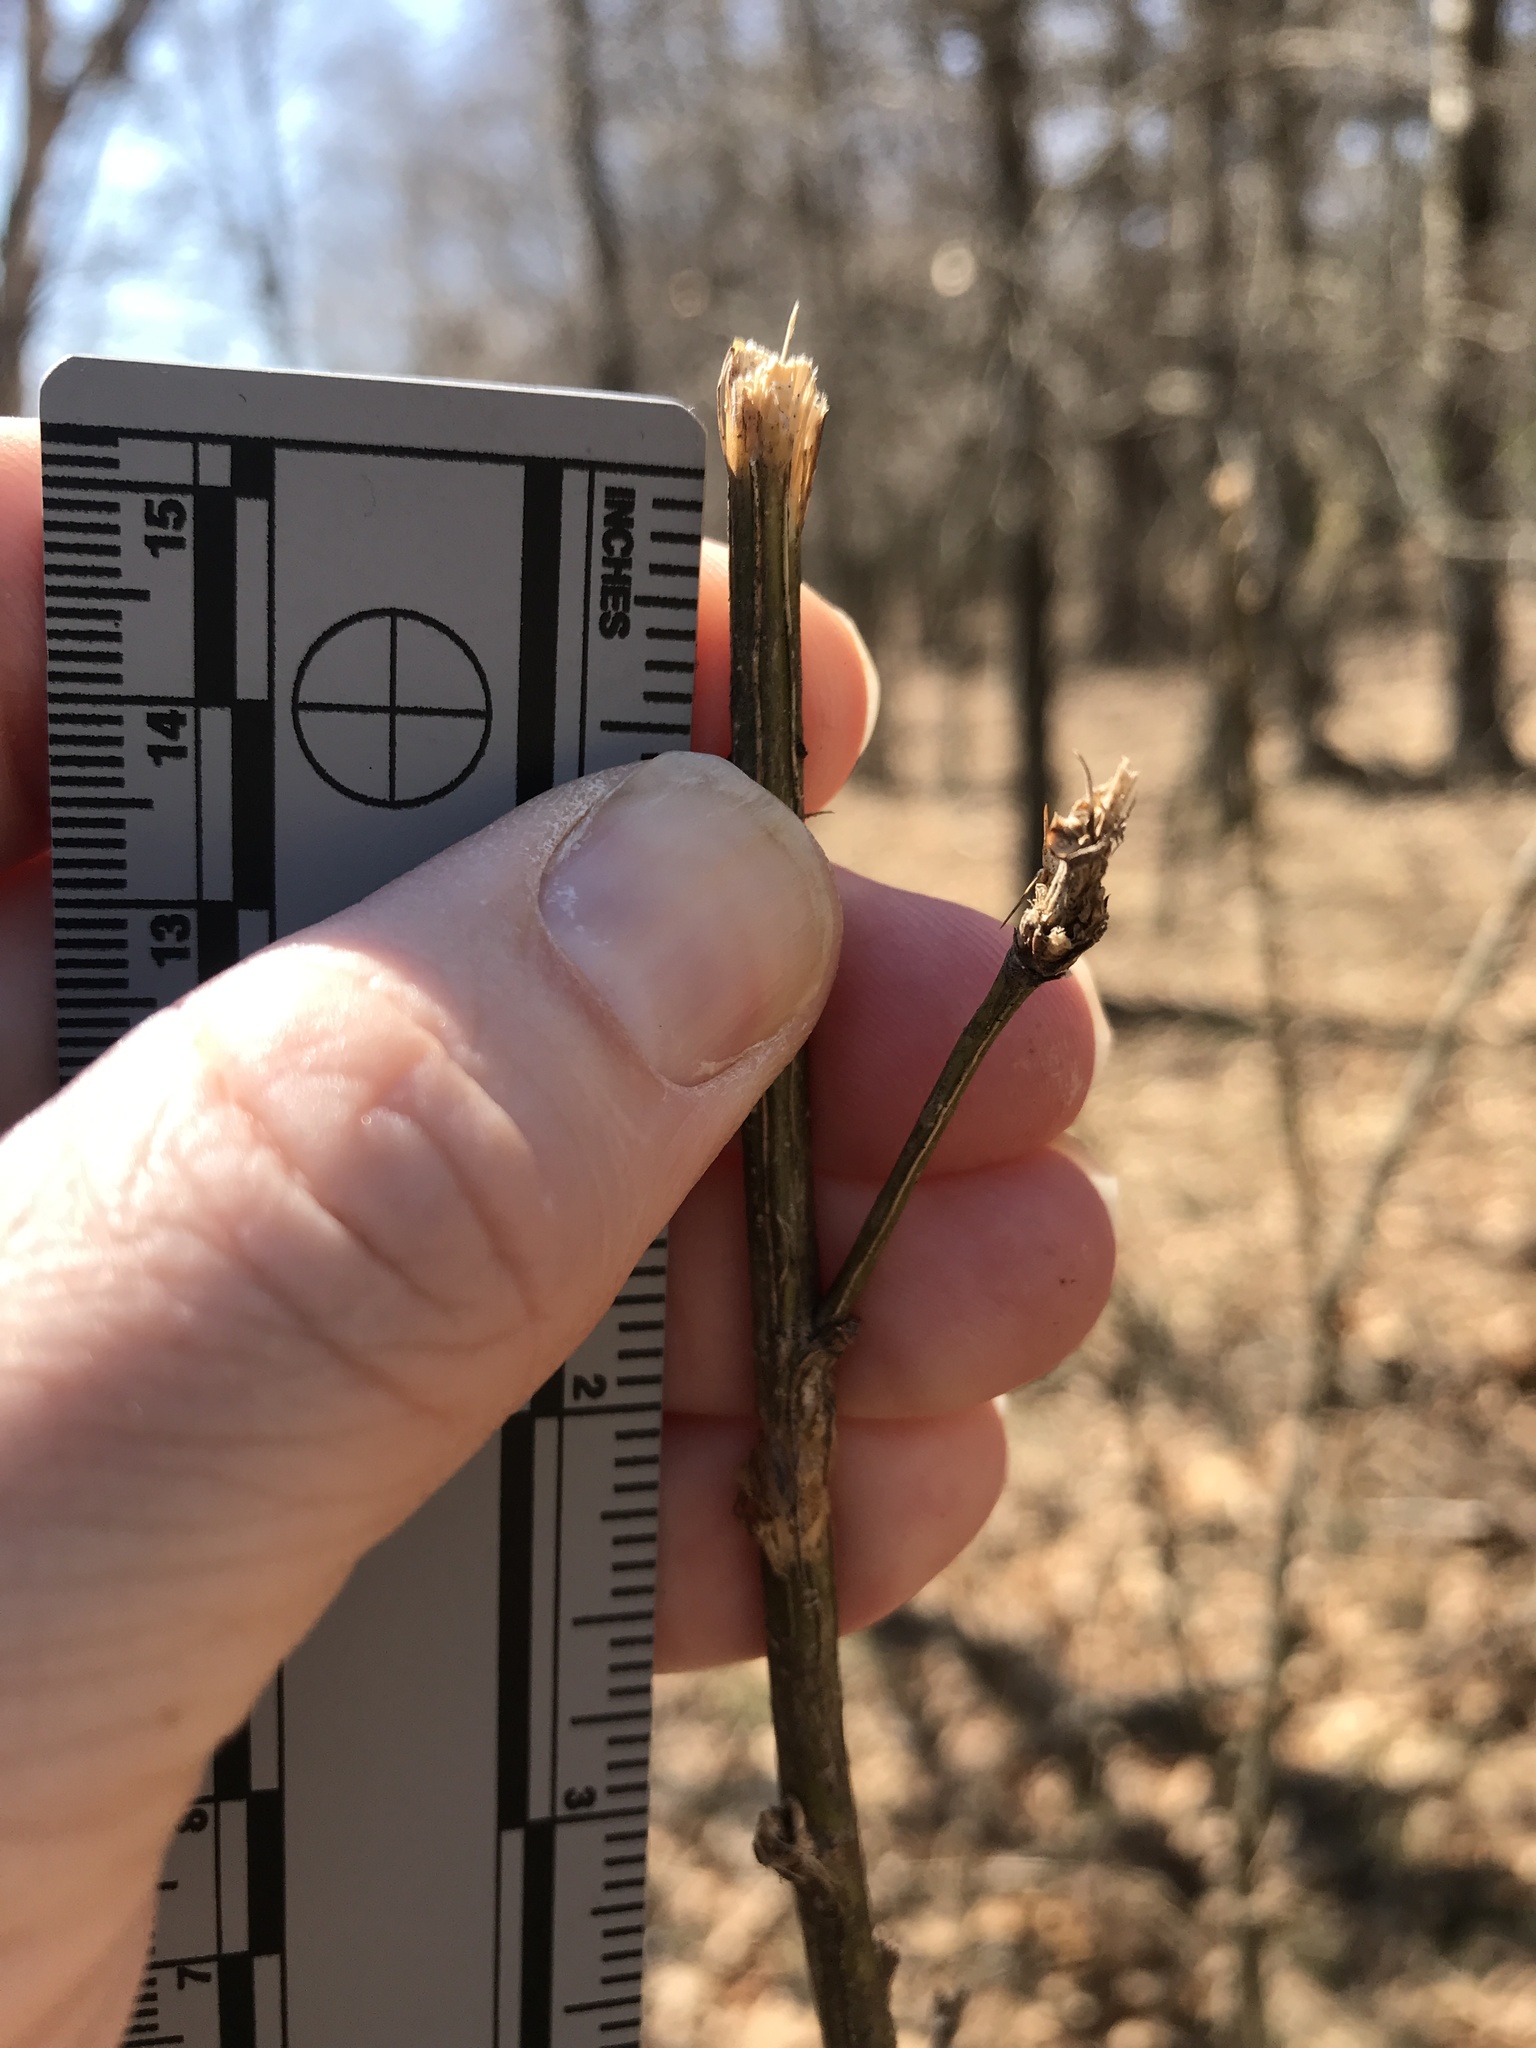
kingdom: Animalia
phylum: Chordata
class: Mammalia
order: Artiodactyla
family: Cervidae
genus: Odocoileus
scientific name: Odocoileus virginianus
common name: White-tailed deer
